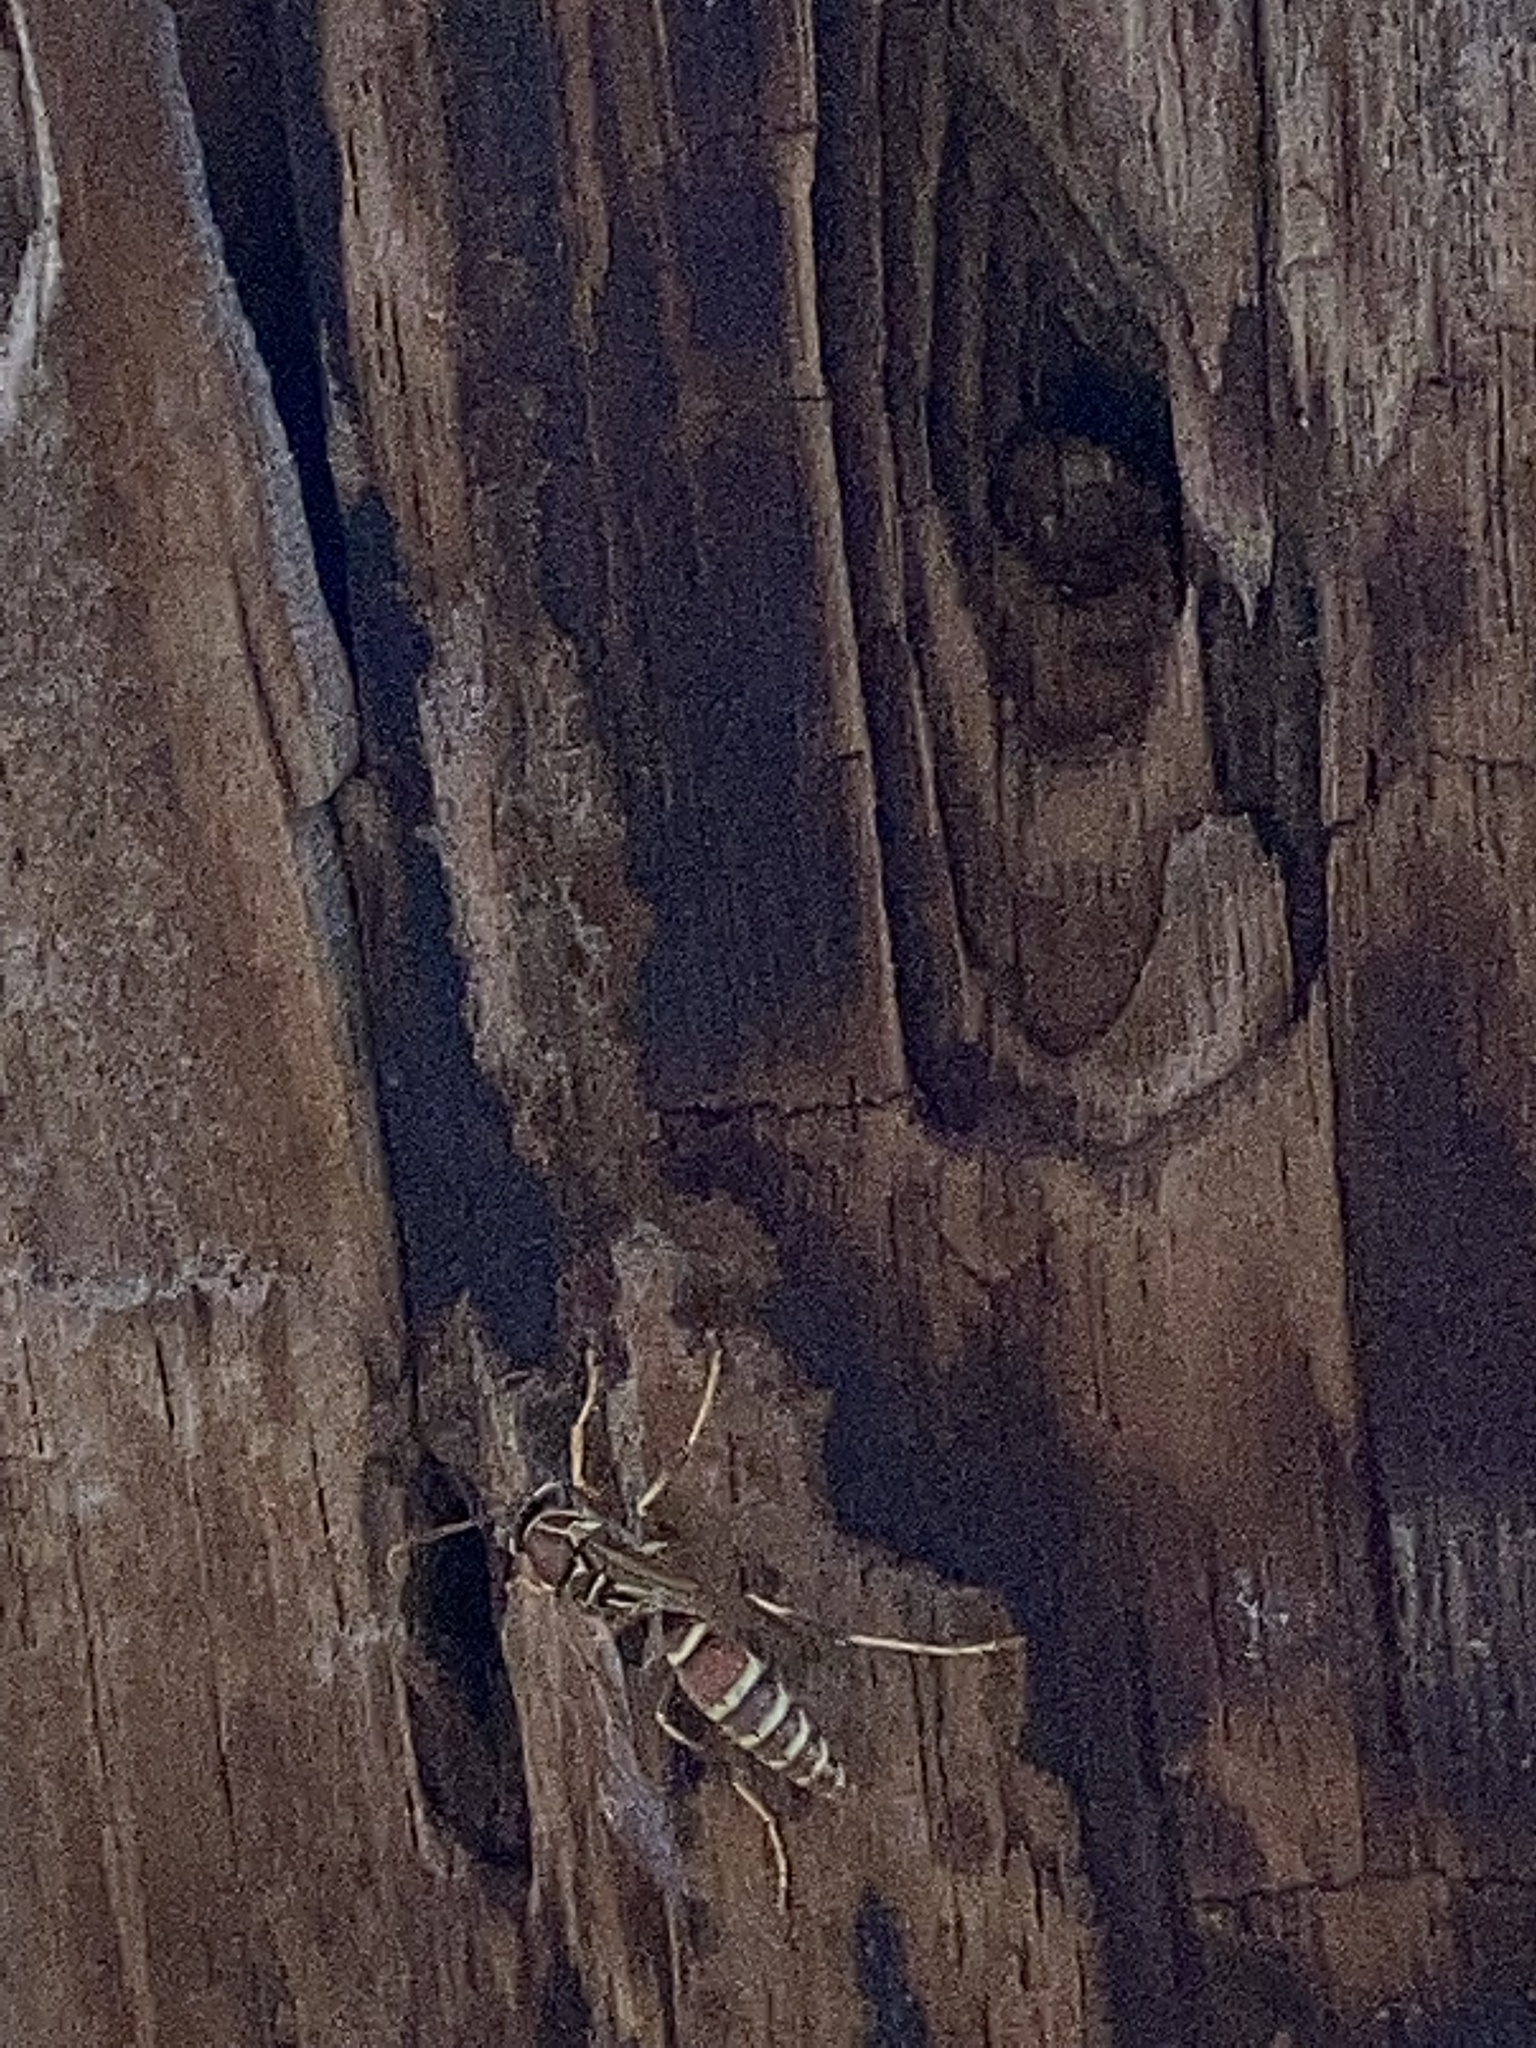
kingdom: Animalia
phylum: Arthropoda
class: Insecta
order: Hymenoptera
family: Eumenidae
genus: Polistes
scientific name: Polistes exclamans
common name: Paper wasp
